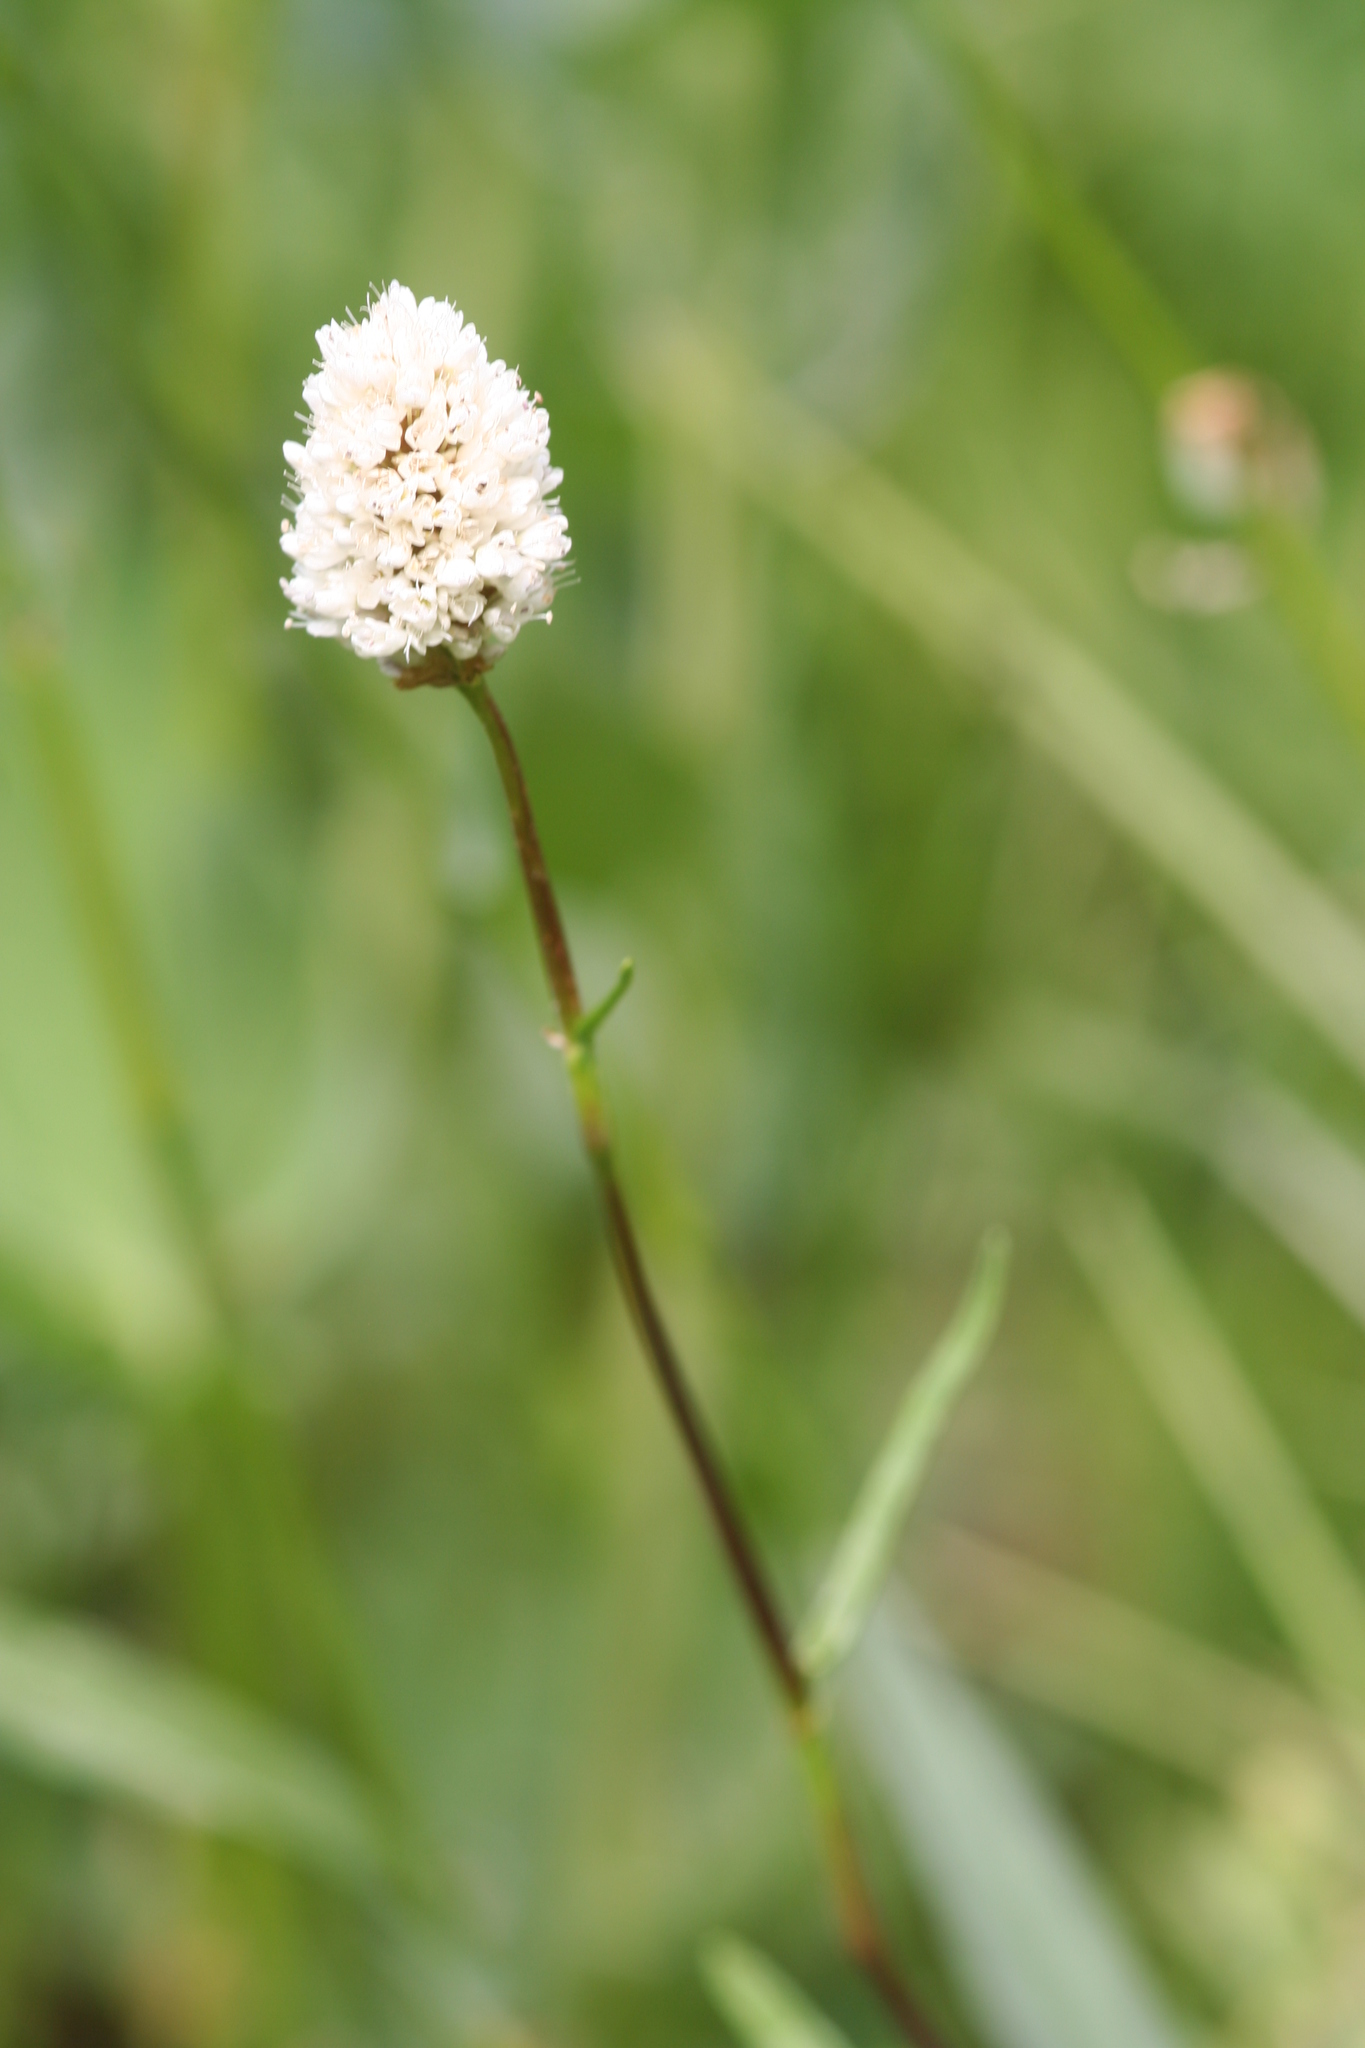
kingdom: Plantae
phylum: Tracheophyta
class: Magnoliopsida
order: Caryophyllales
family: Polygonaceae
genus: Bistorta
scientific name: Bistorta bistortoides
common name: American bistort
